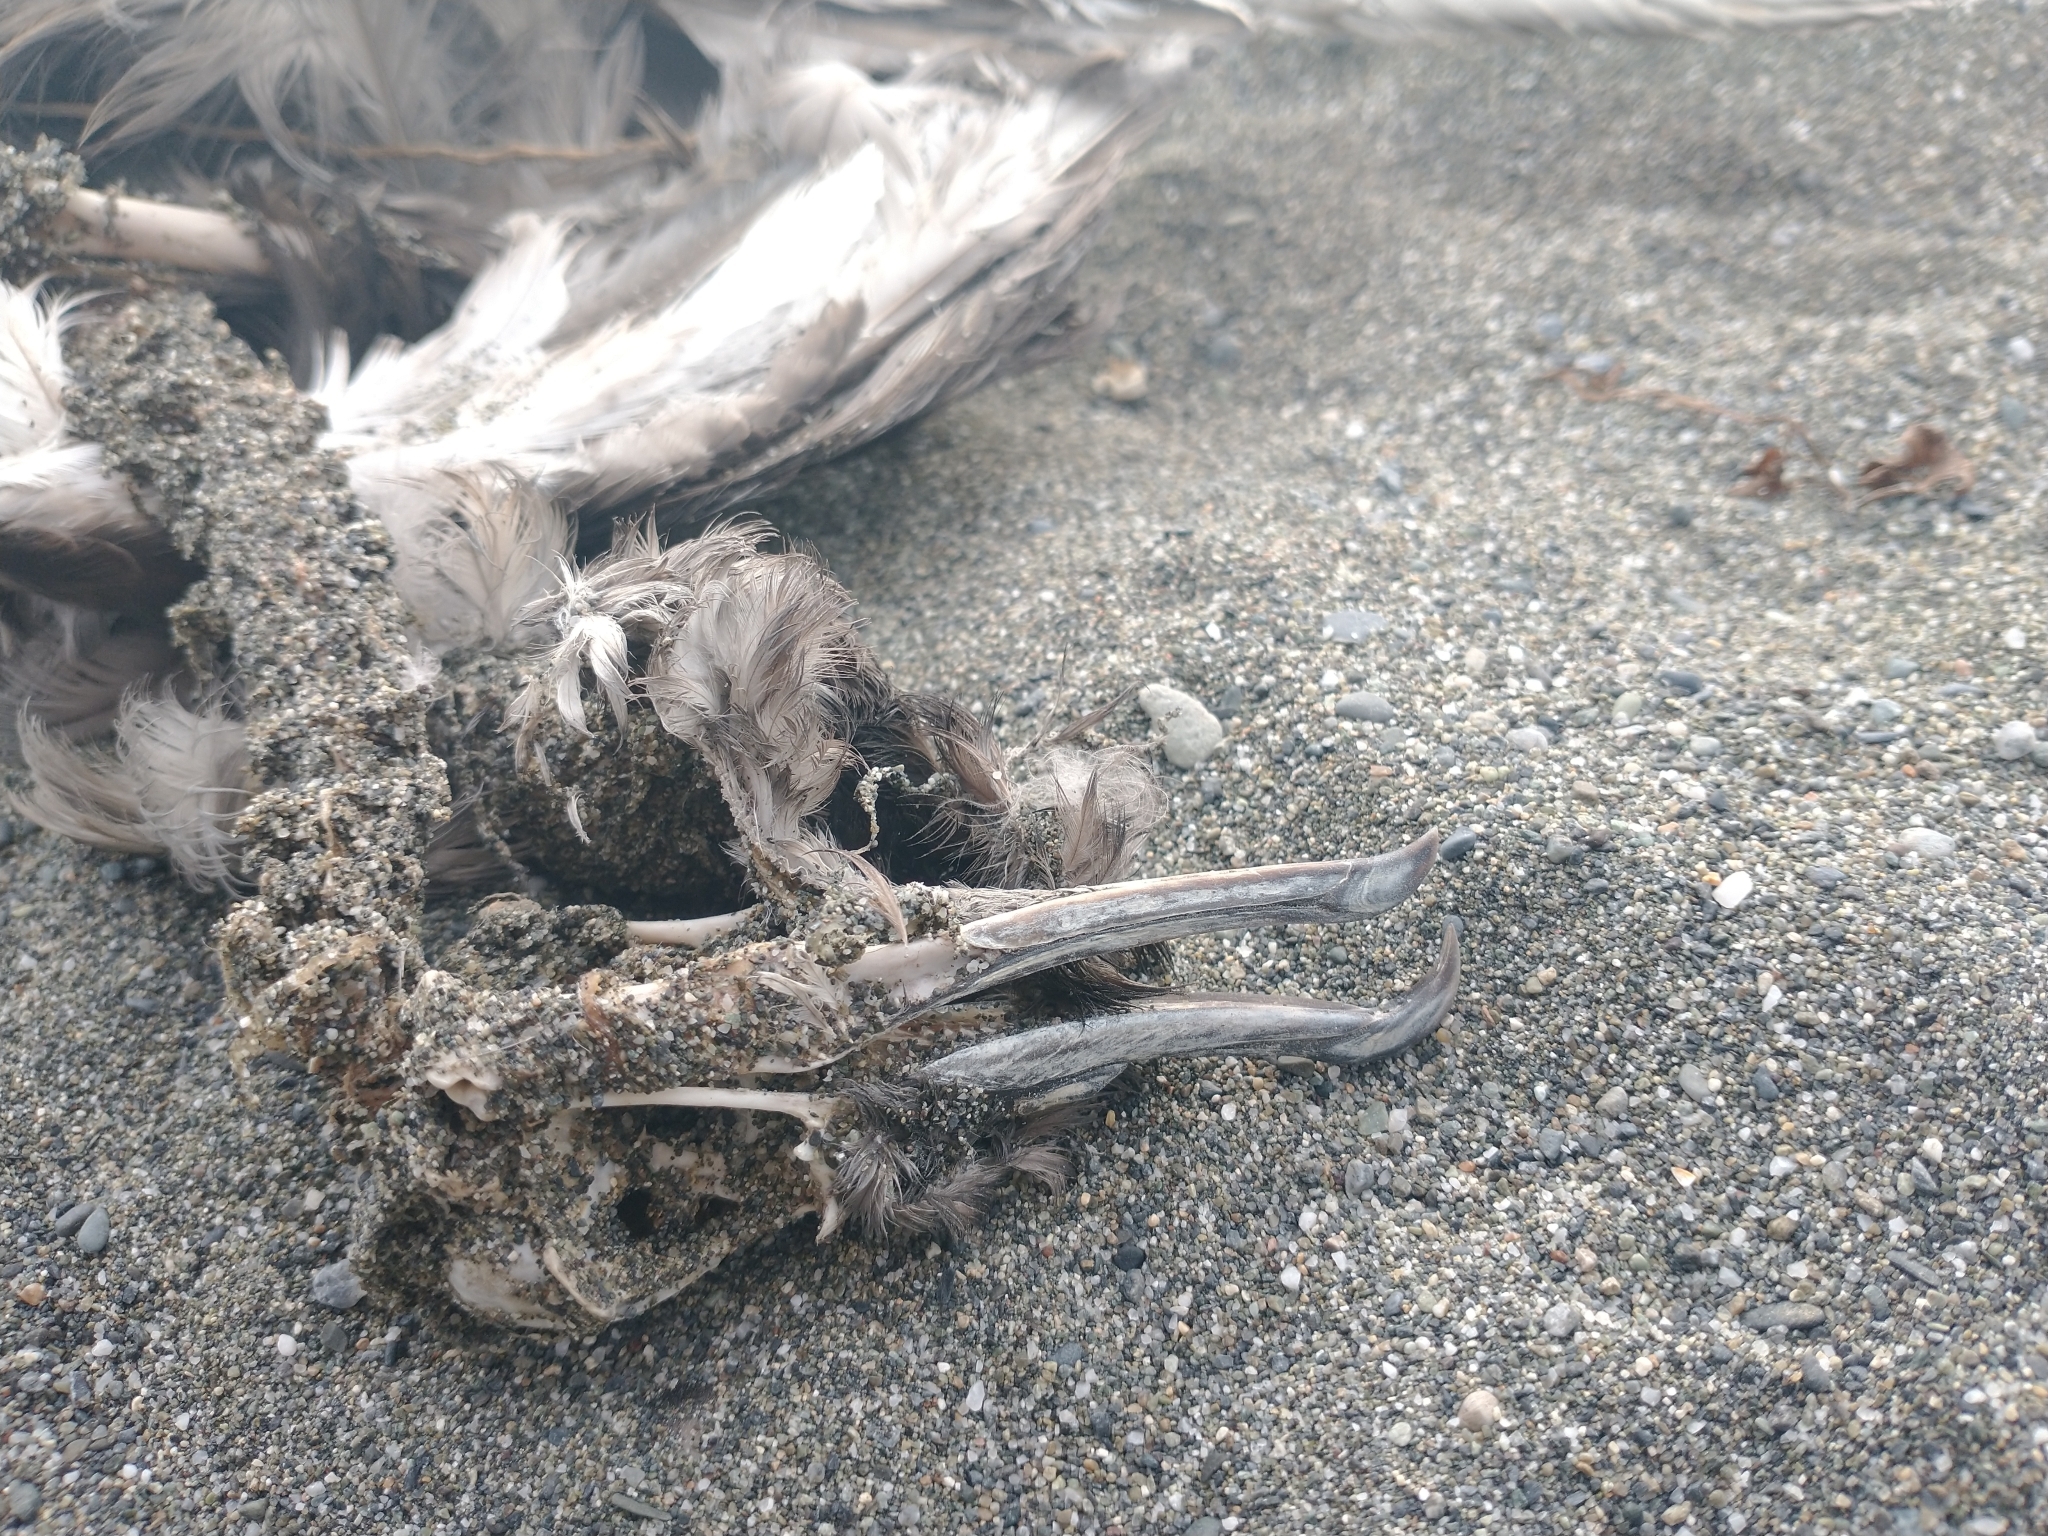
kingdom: Animalia
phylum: Chordata
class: Aves
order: Procellariiformes
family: Procellariidae
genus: Puffinus
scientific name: Puffinus griseus
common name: Sooty shearwater
